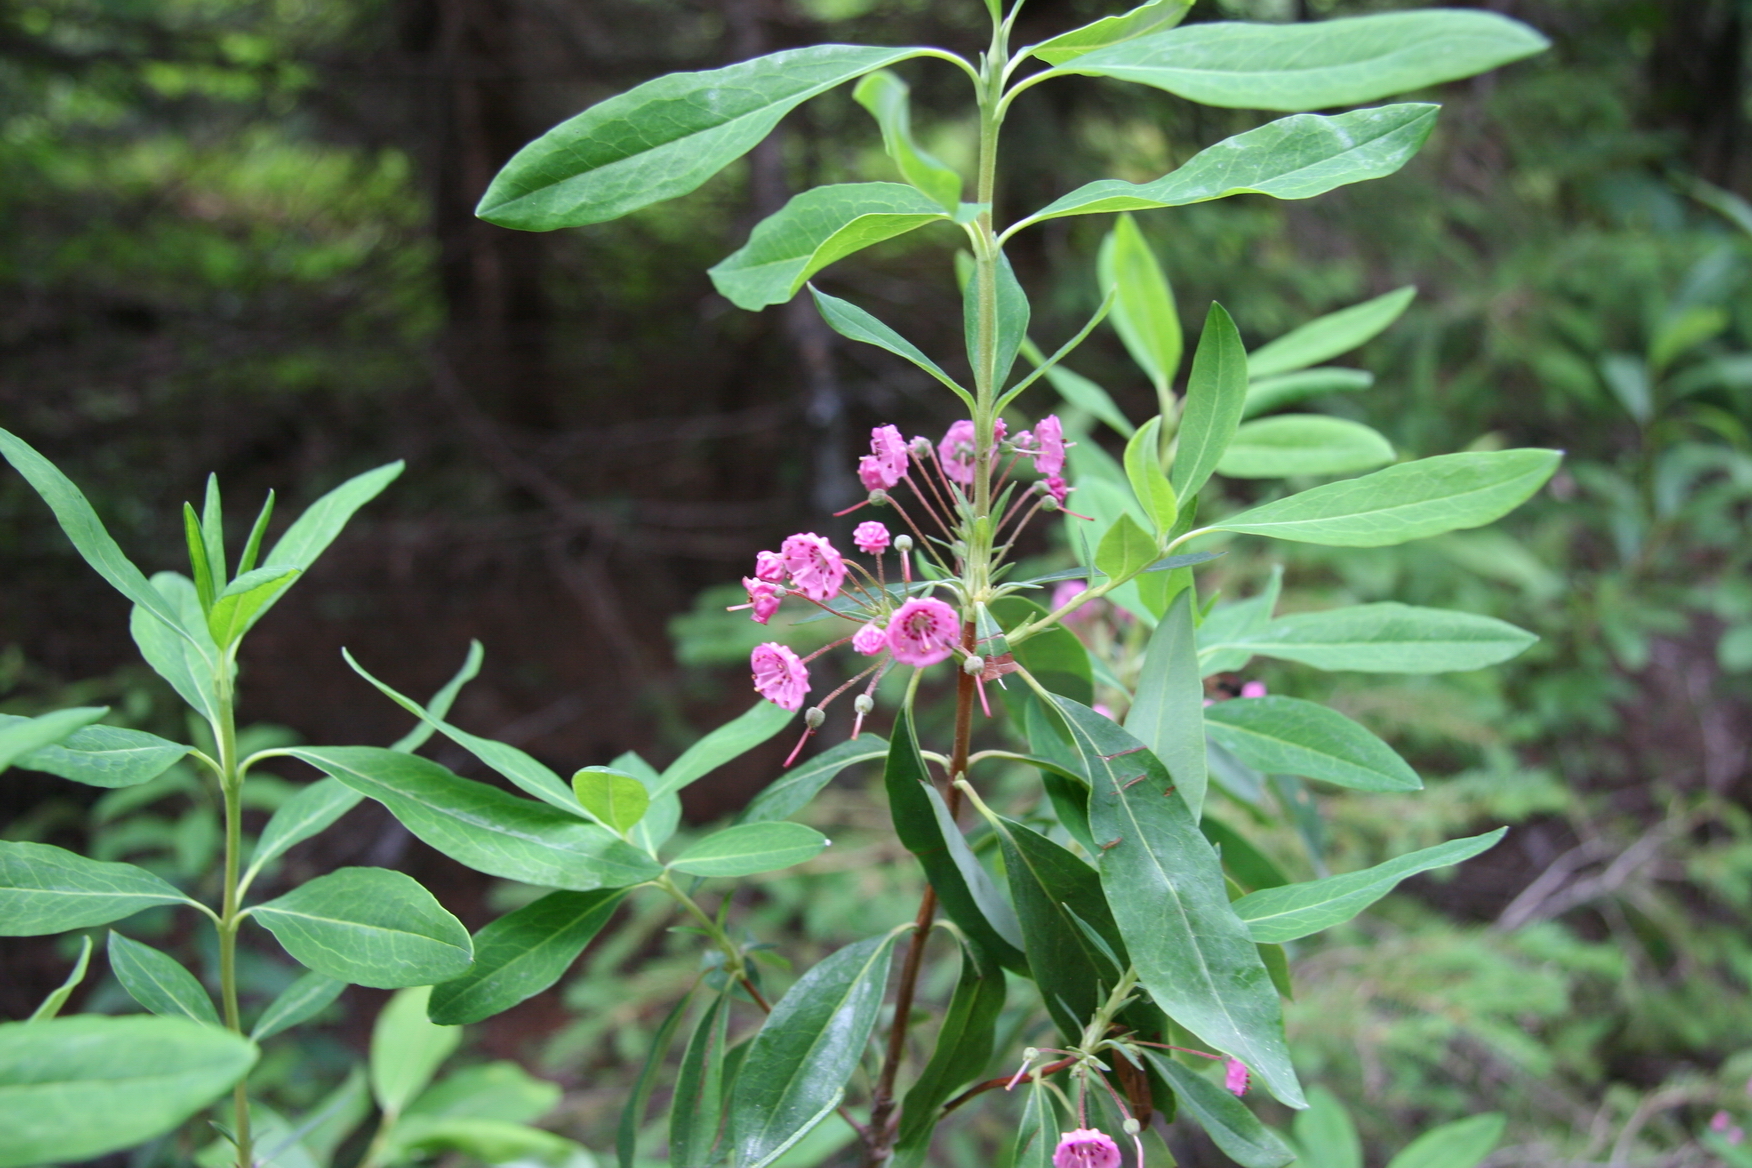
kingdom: Plantae
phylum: Tracheophyta
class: Magnoliopsida
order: Ericales
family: Ericaceae
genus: Kalmia
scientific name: Kalmia angustifolia
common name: Sheep-laurel
